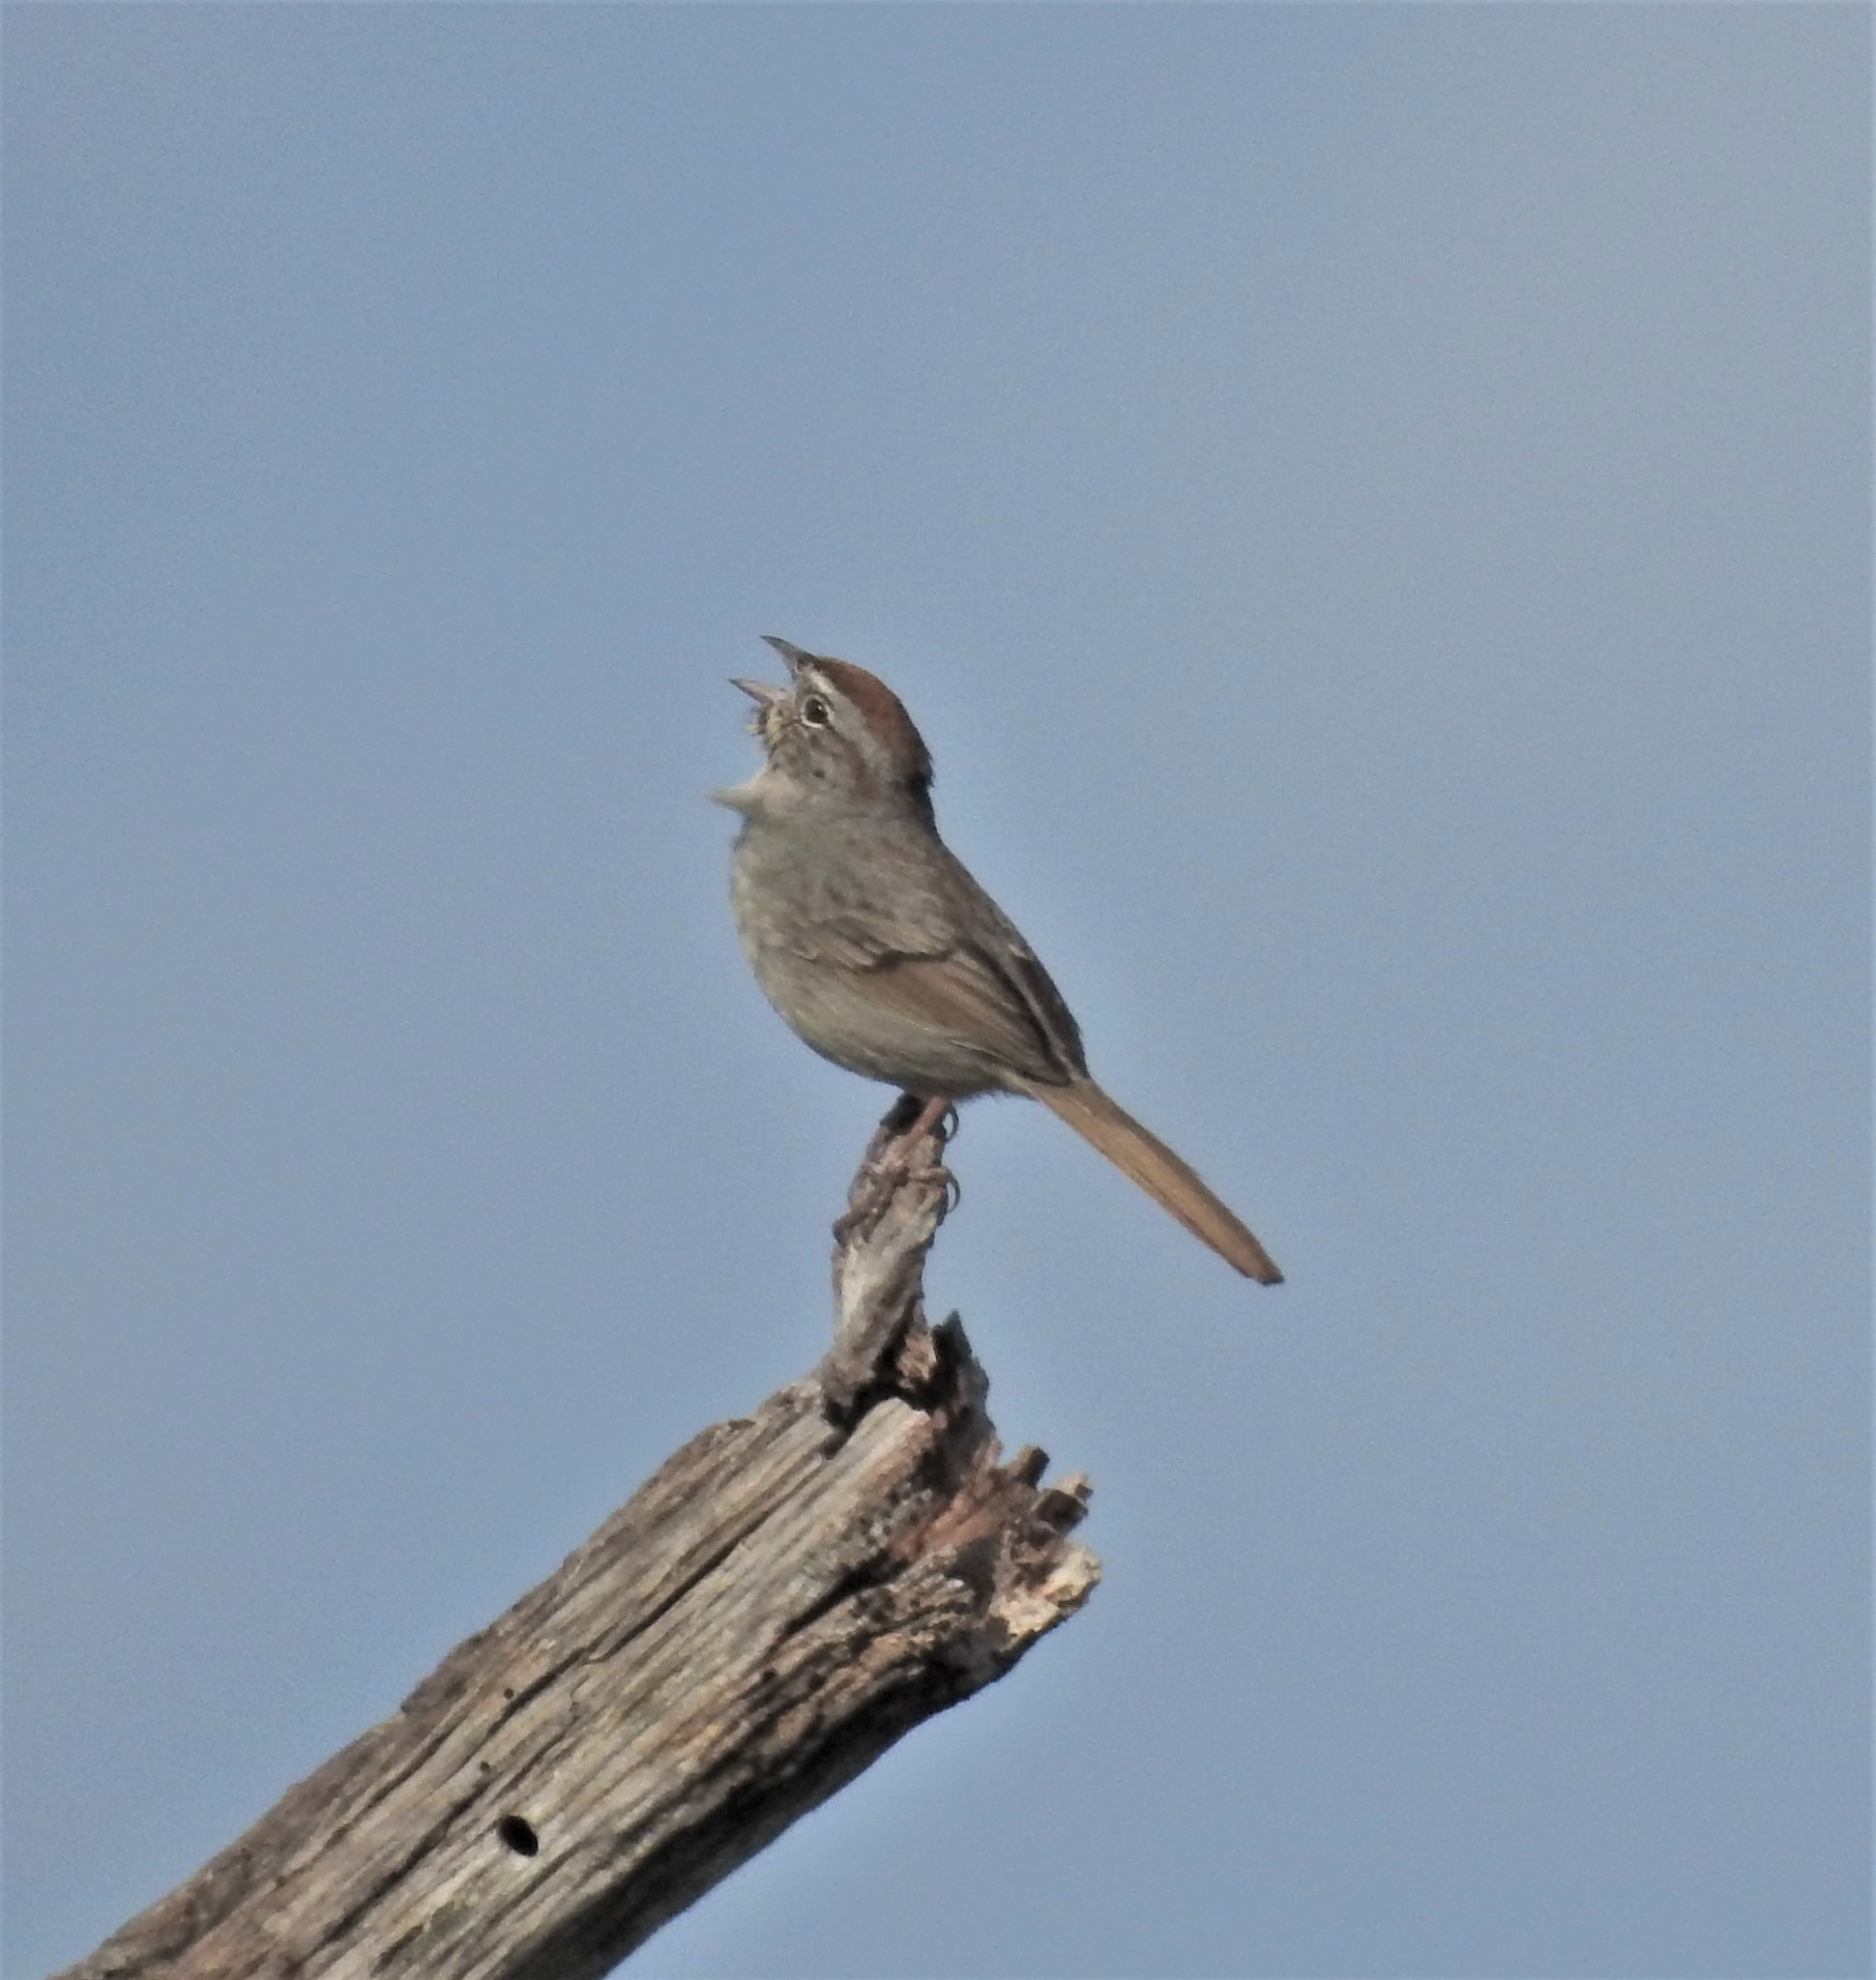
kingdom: Animalia
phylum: Chordata
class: Aves
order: Passeriformes
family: Passerellidae
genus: Aimophila
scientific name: Aimophila ruficeps
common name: Rufous-crowned sparrow
